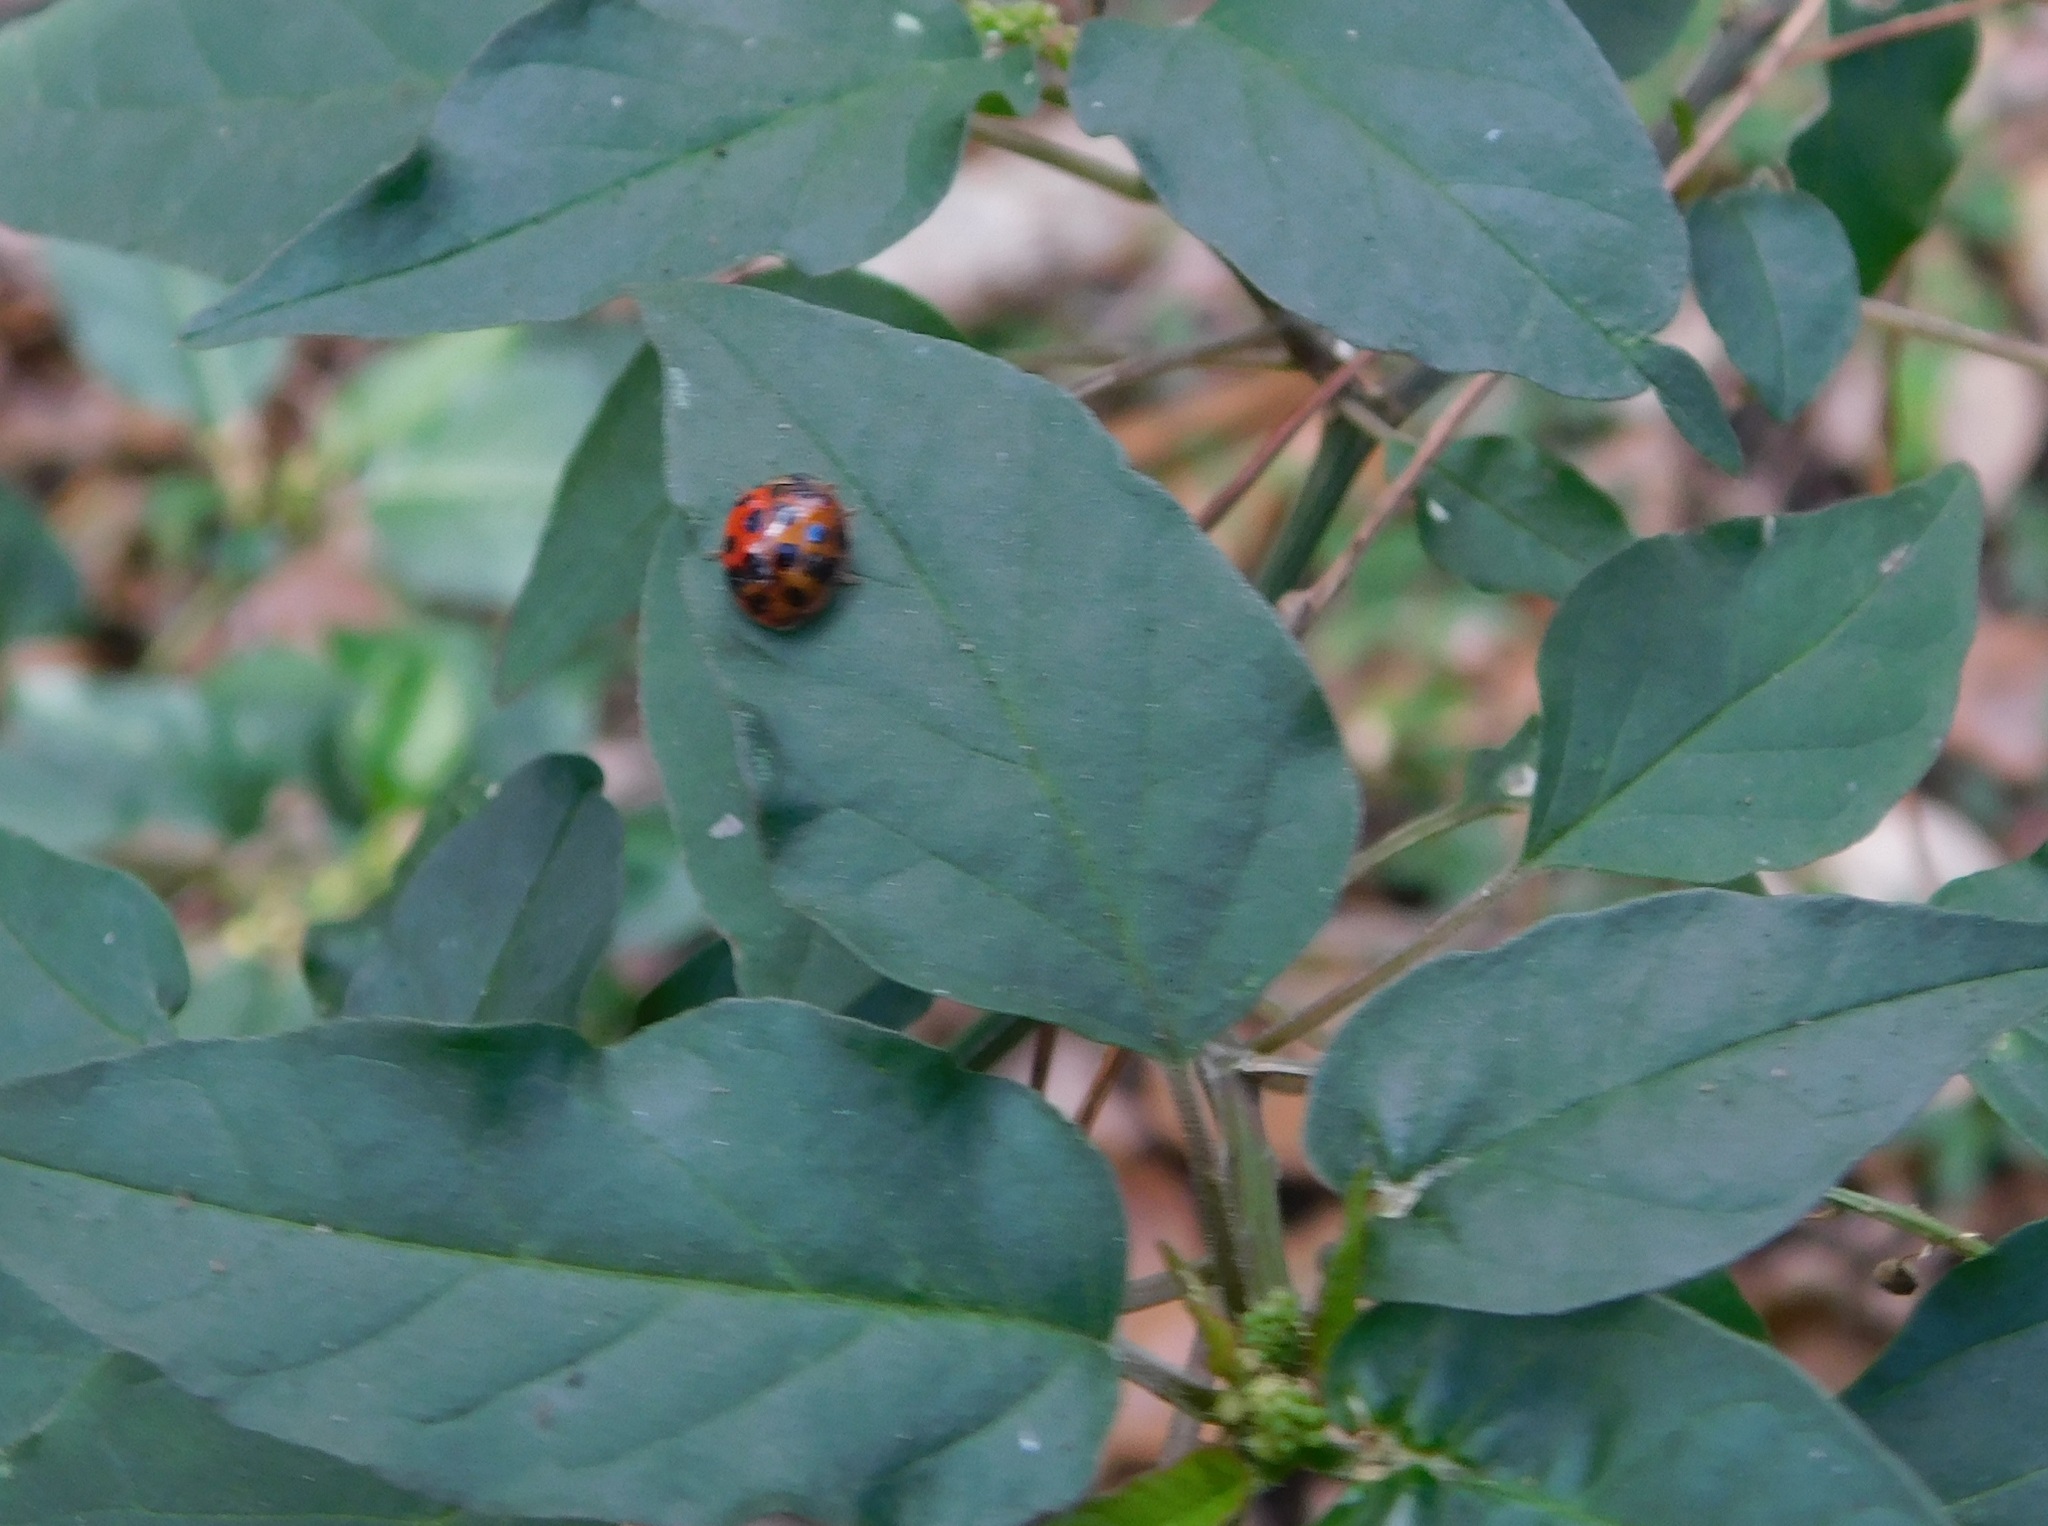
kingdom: Animalia
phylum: Arthropoda
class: Insecta
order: Coleoptera
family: Coccinellidae
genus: Harmonia
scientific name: Harmonia axyridis
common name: Harlequin ladybird
